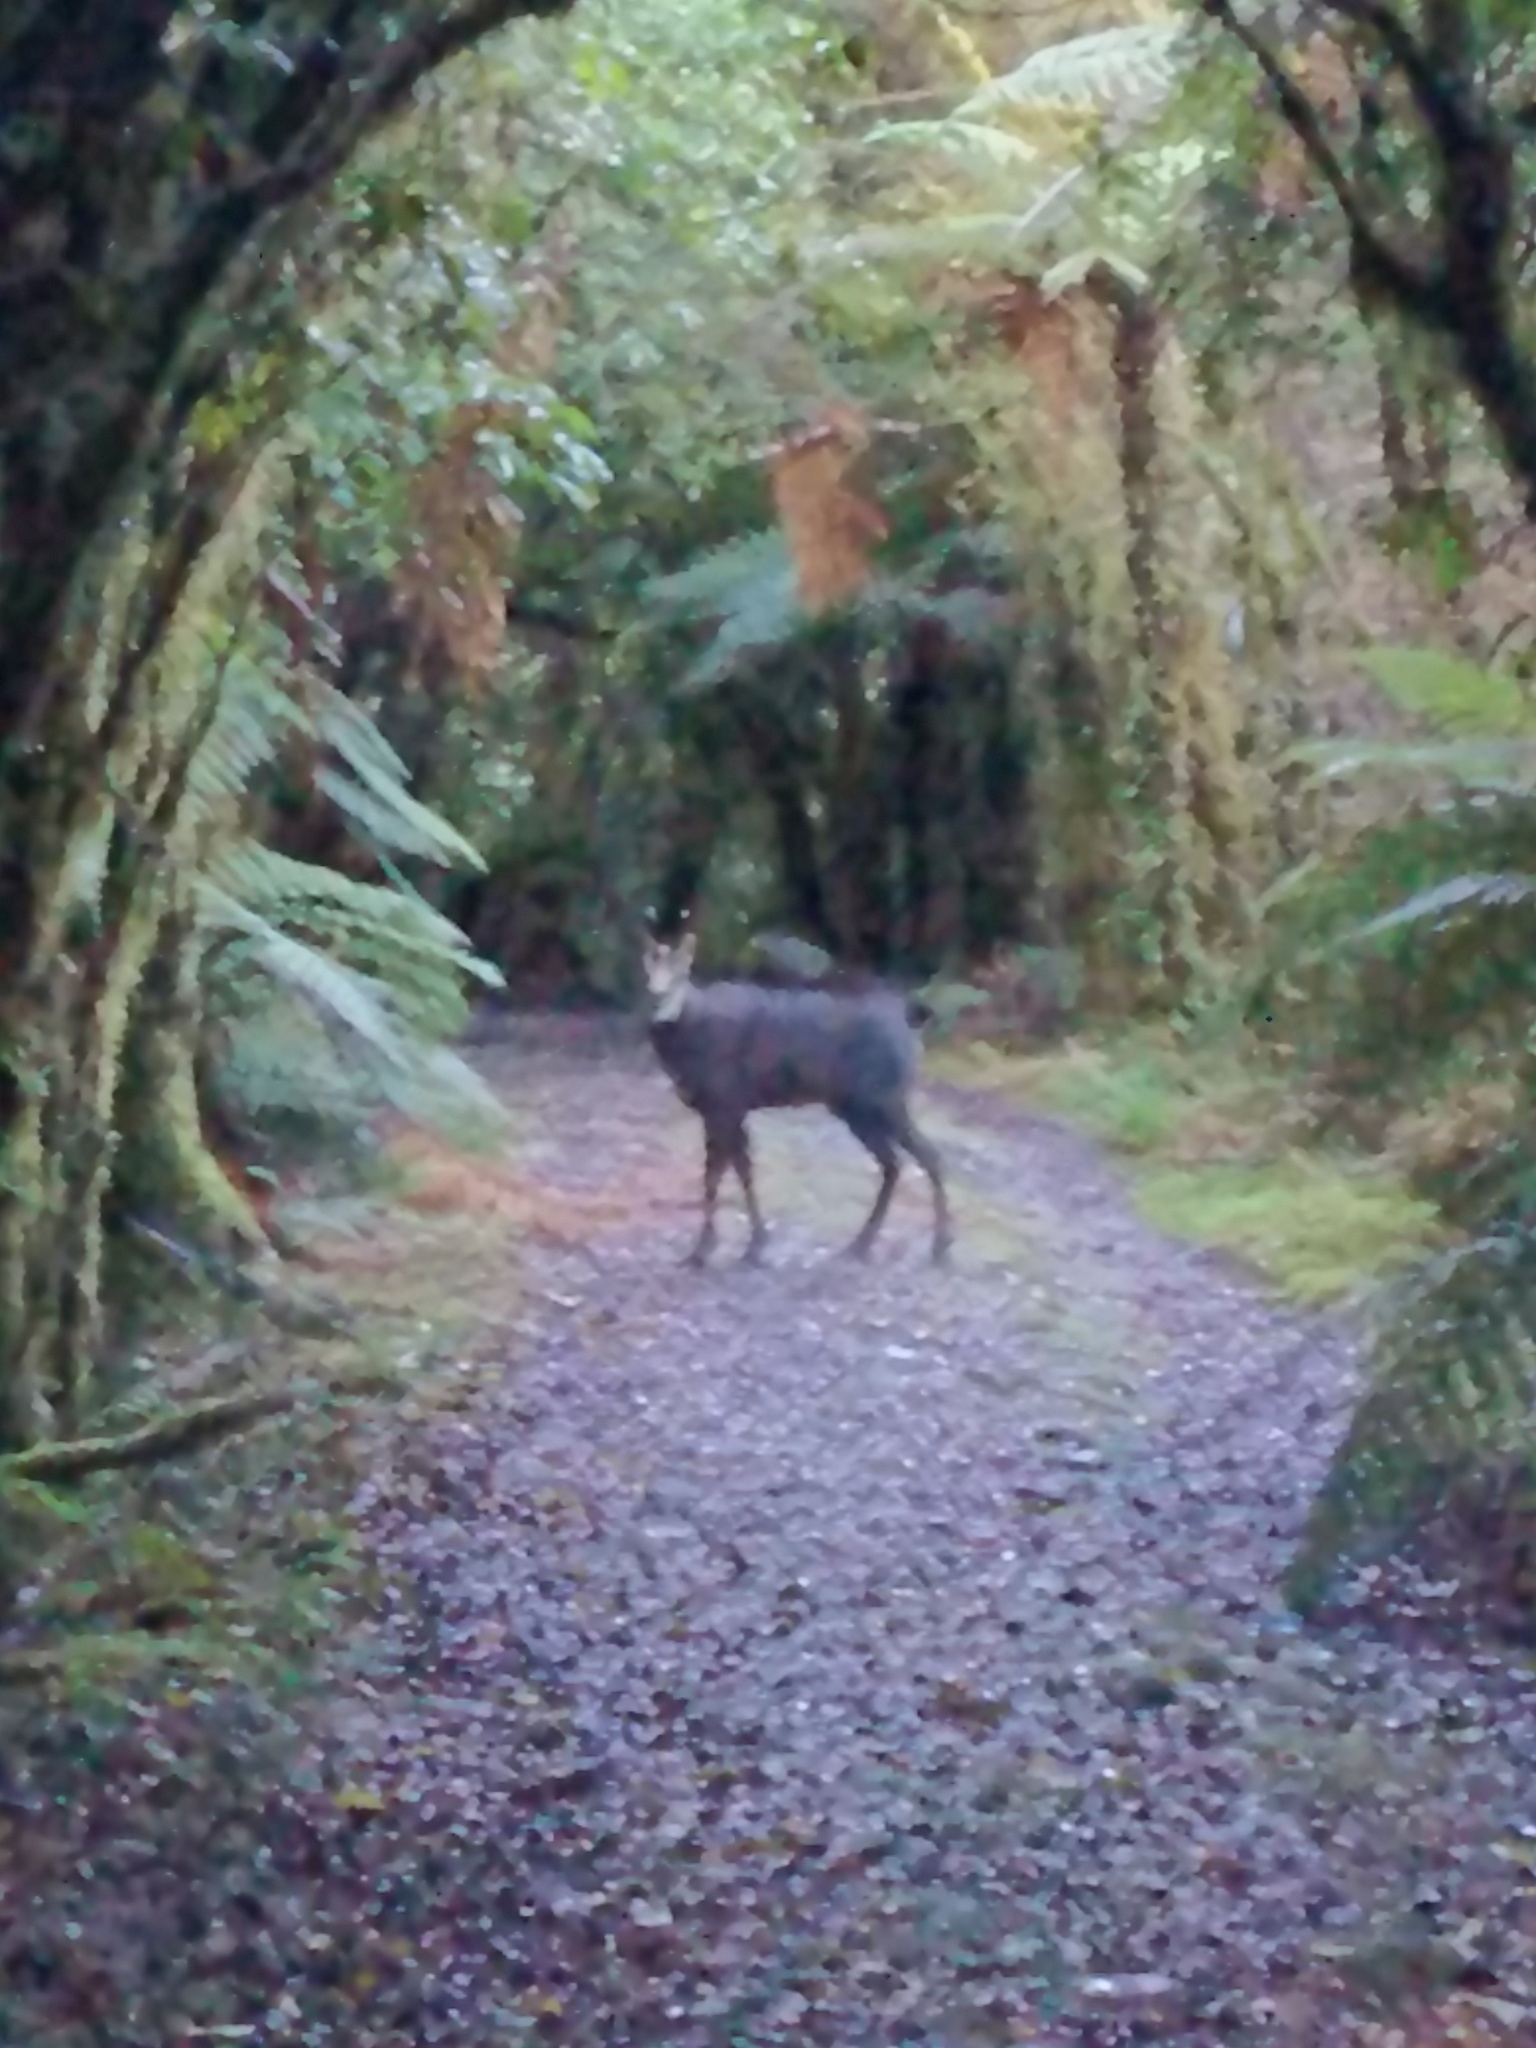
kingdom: Animalia
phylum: Chordata
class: Mammalia
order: Artiodactyla
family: Bovidae
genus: Rupicapra
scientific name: Rupicapra rupicapra
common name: Chamois
